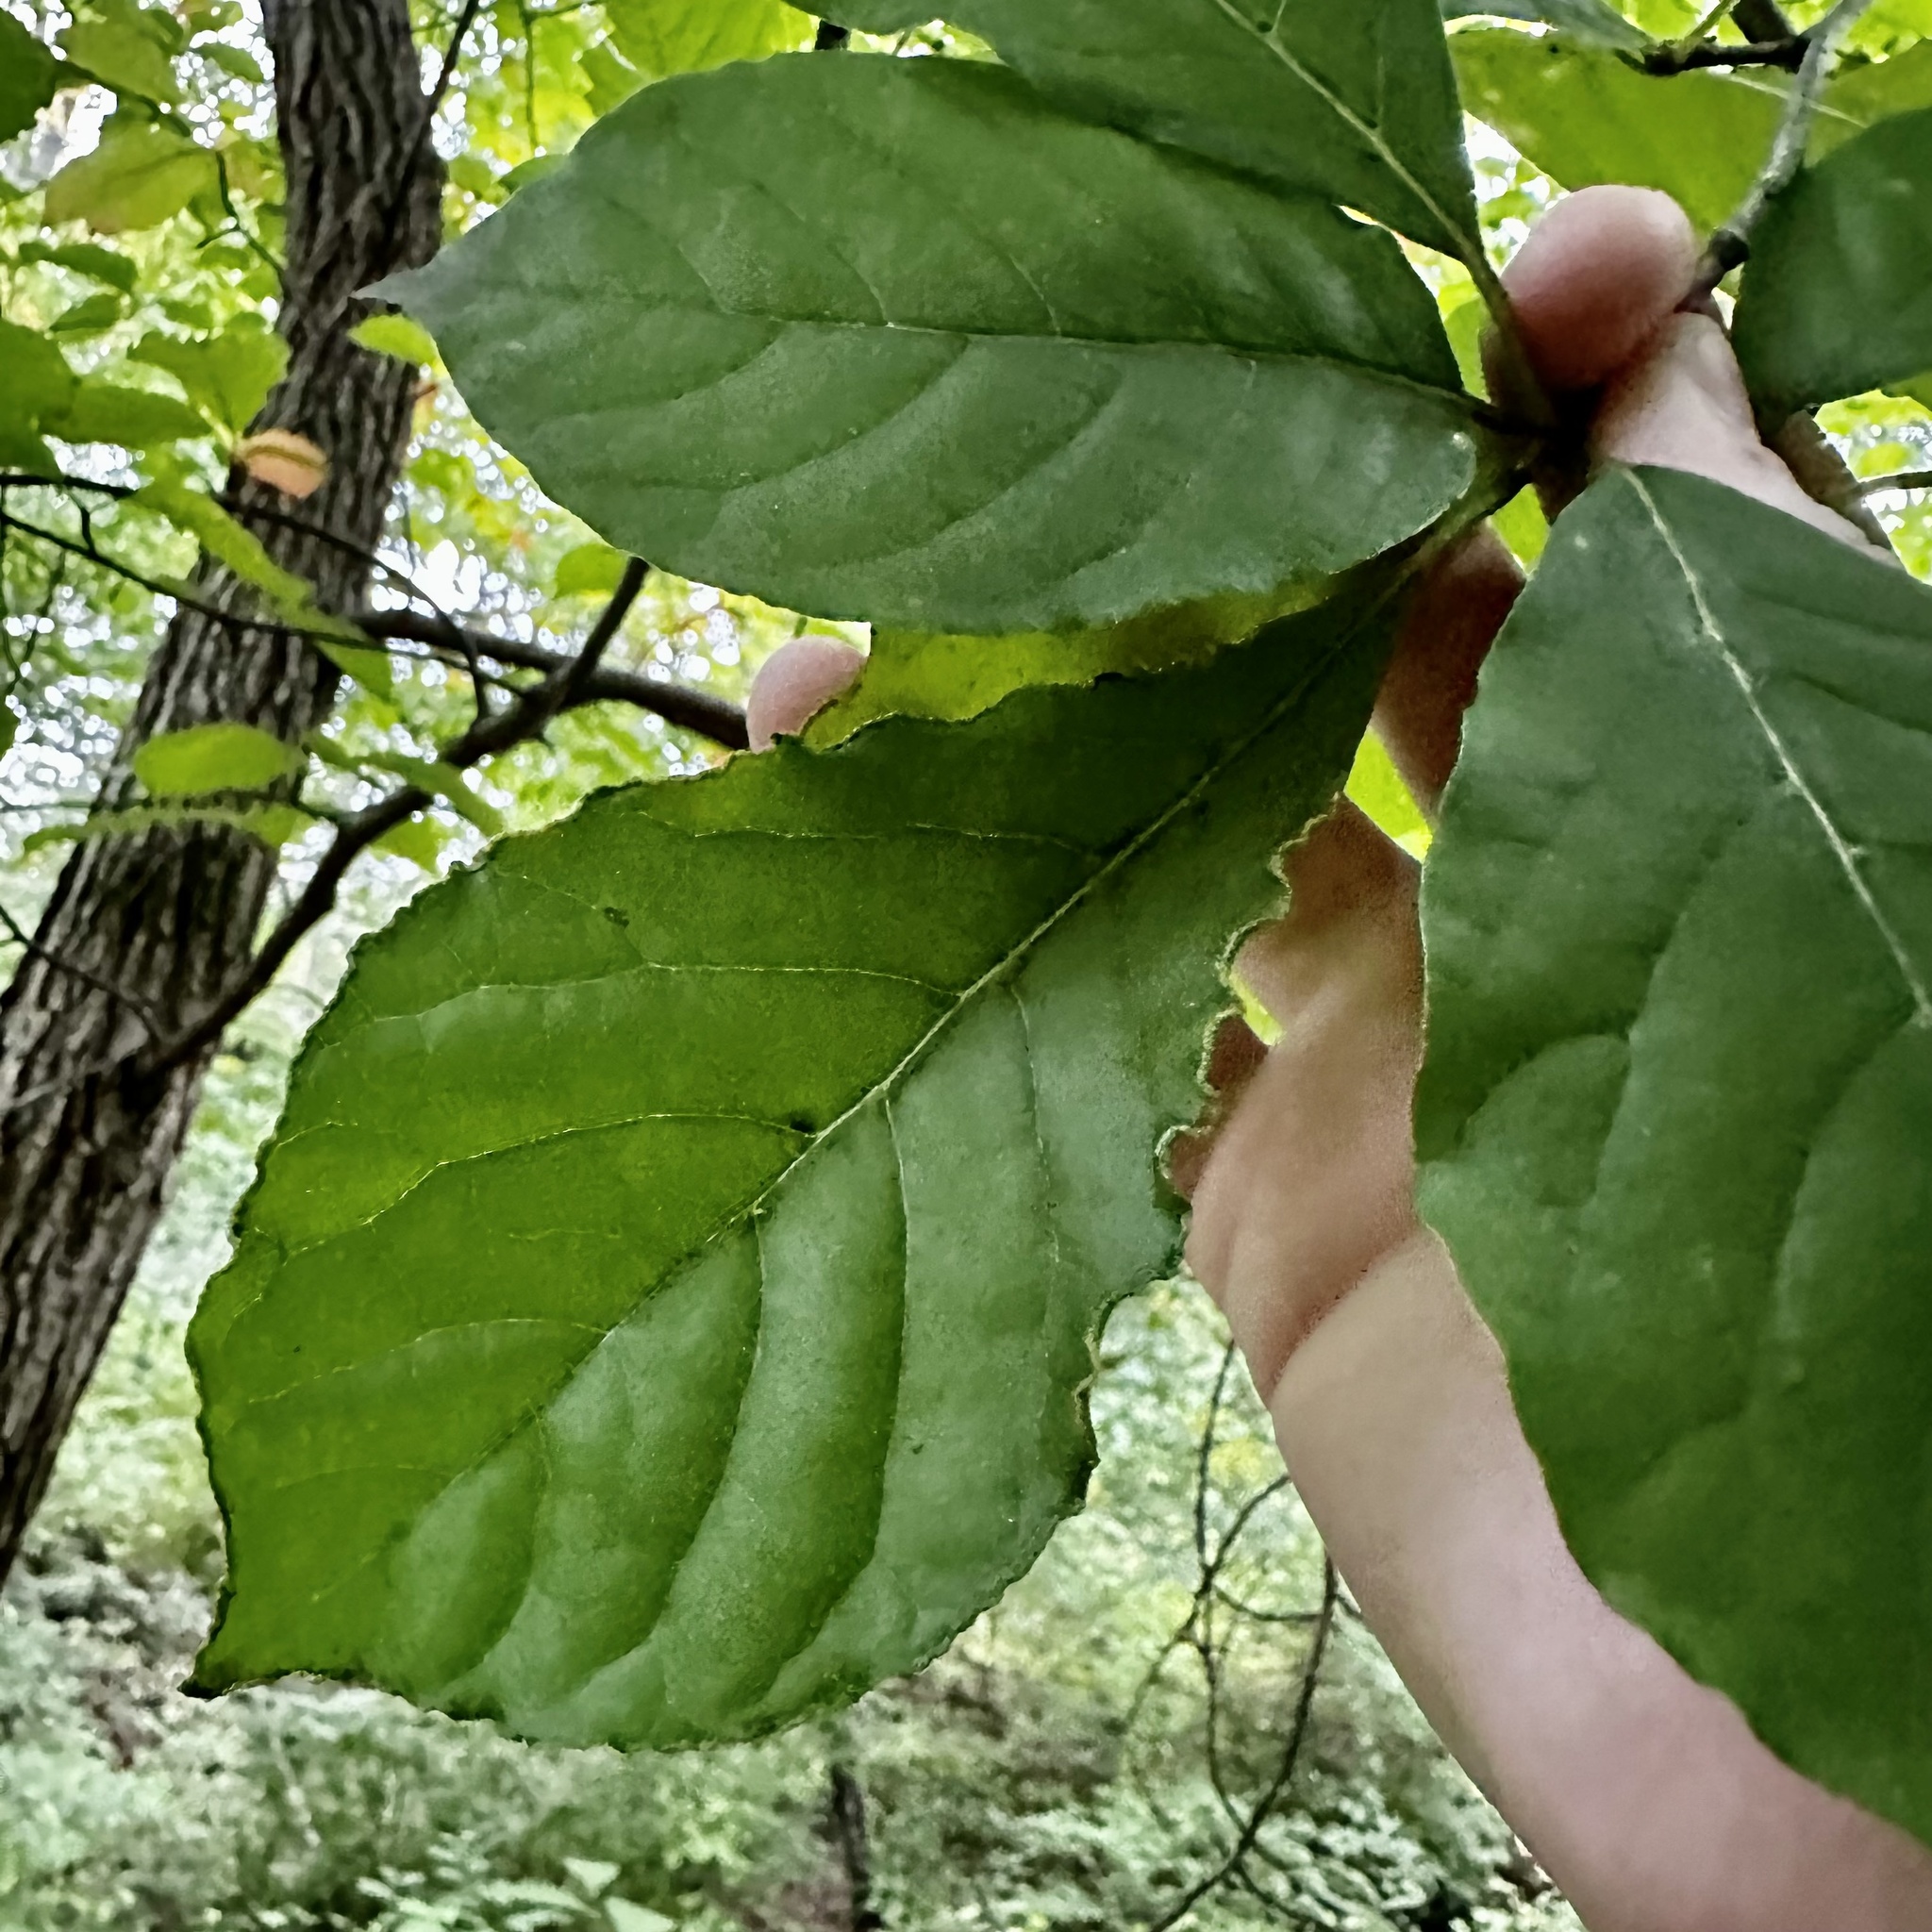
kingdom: Animalia
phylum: Arthropoda
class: Arachnida
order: Trombidiformes
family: Eriophyidae
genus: Aceria
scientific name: Aceria
